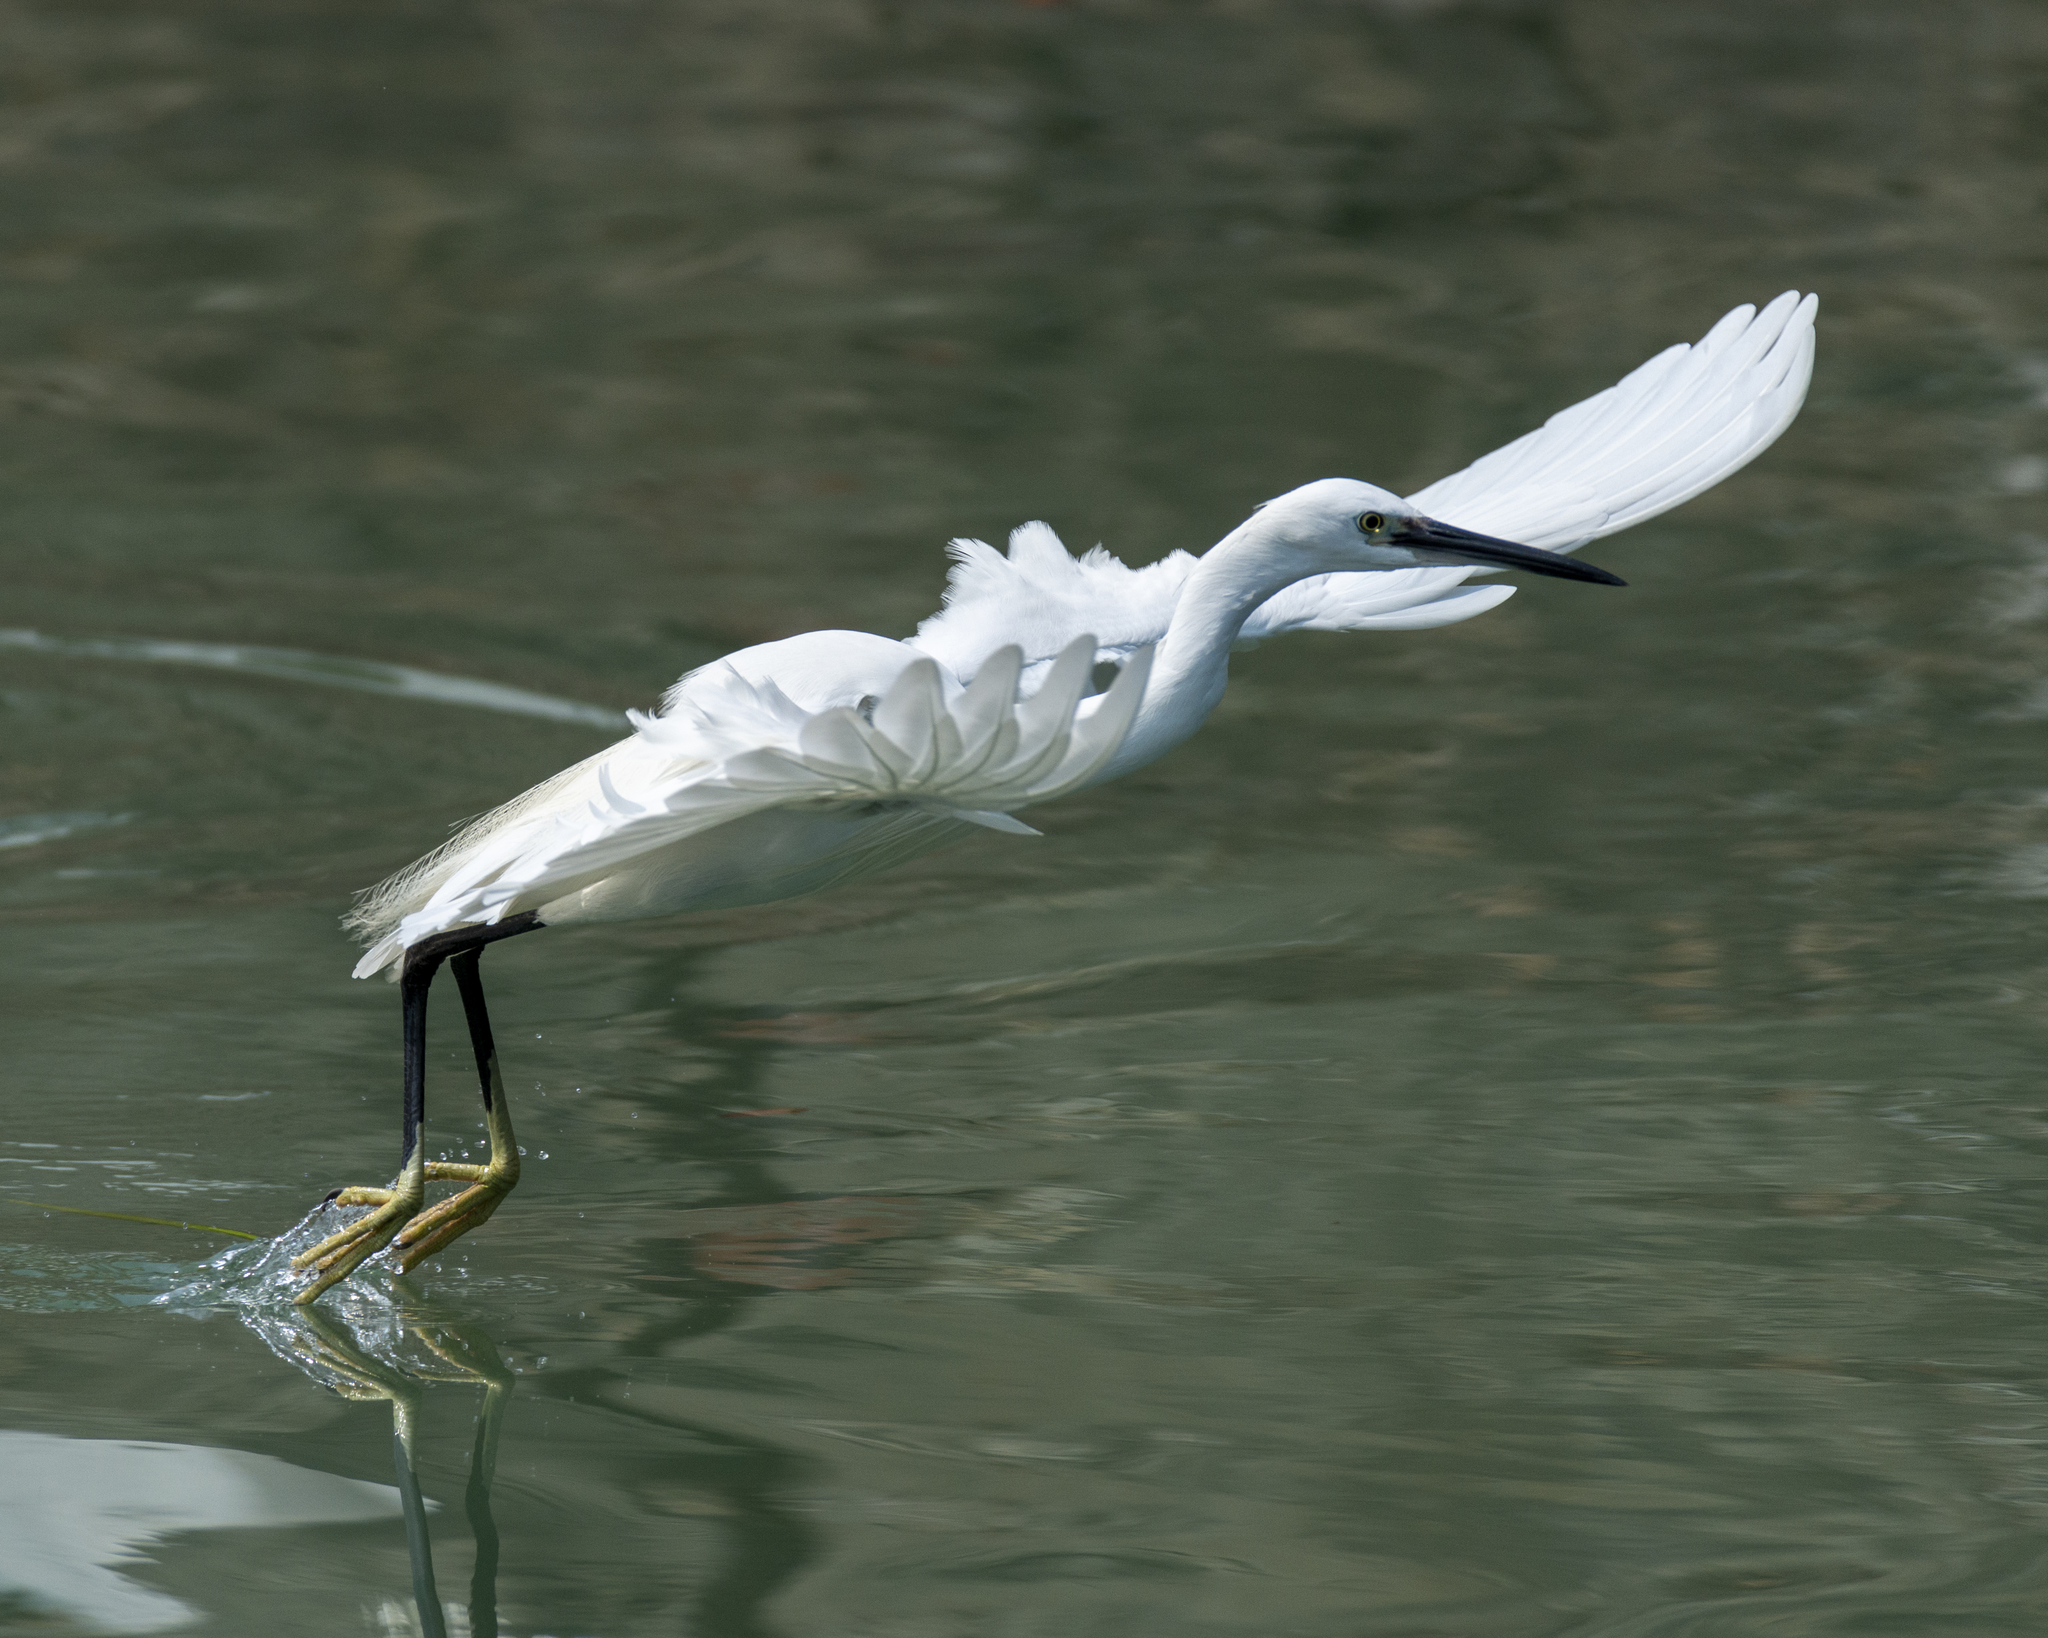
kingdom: Animalia
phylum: Chordata
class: Aves
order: Pelecaniformes
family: Ardeidae
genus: Egretta
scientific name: Egretta garzetta
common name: Little egret
